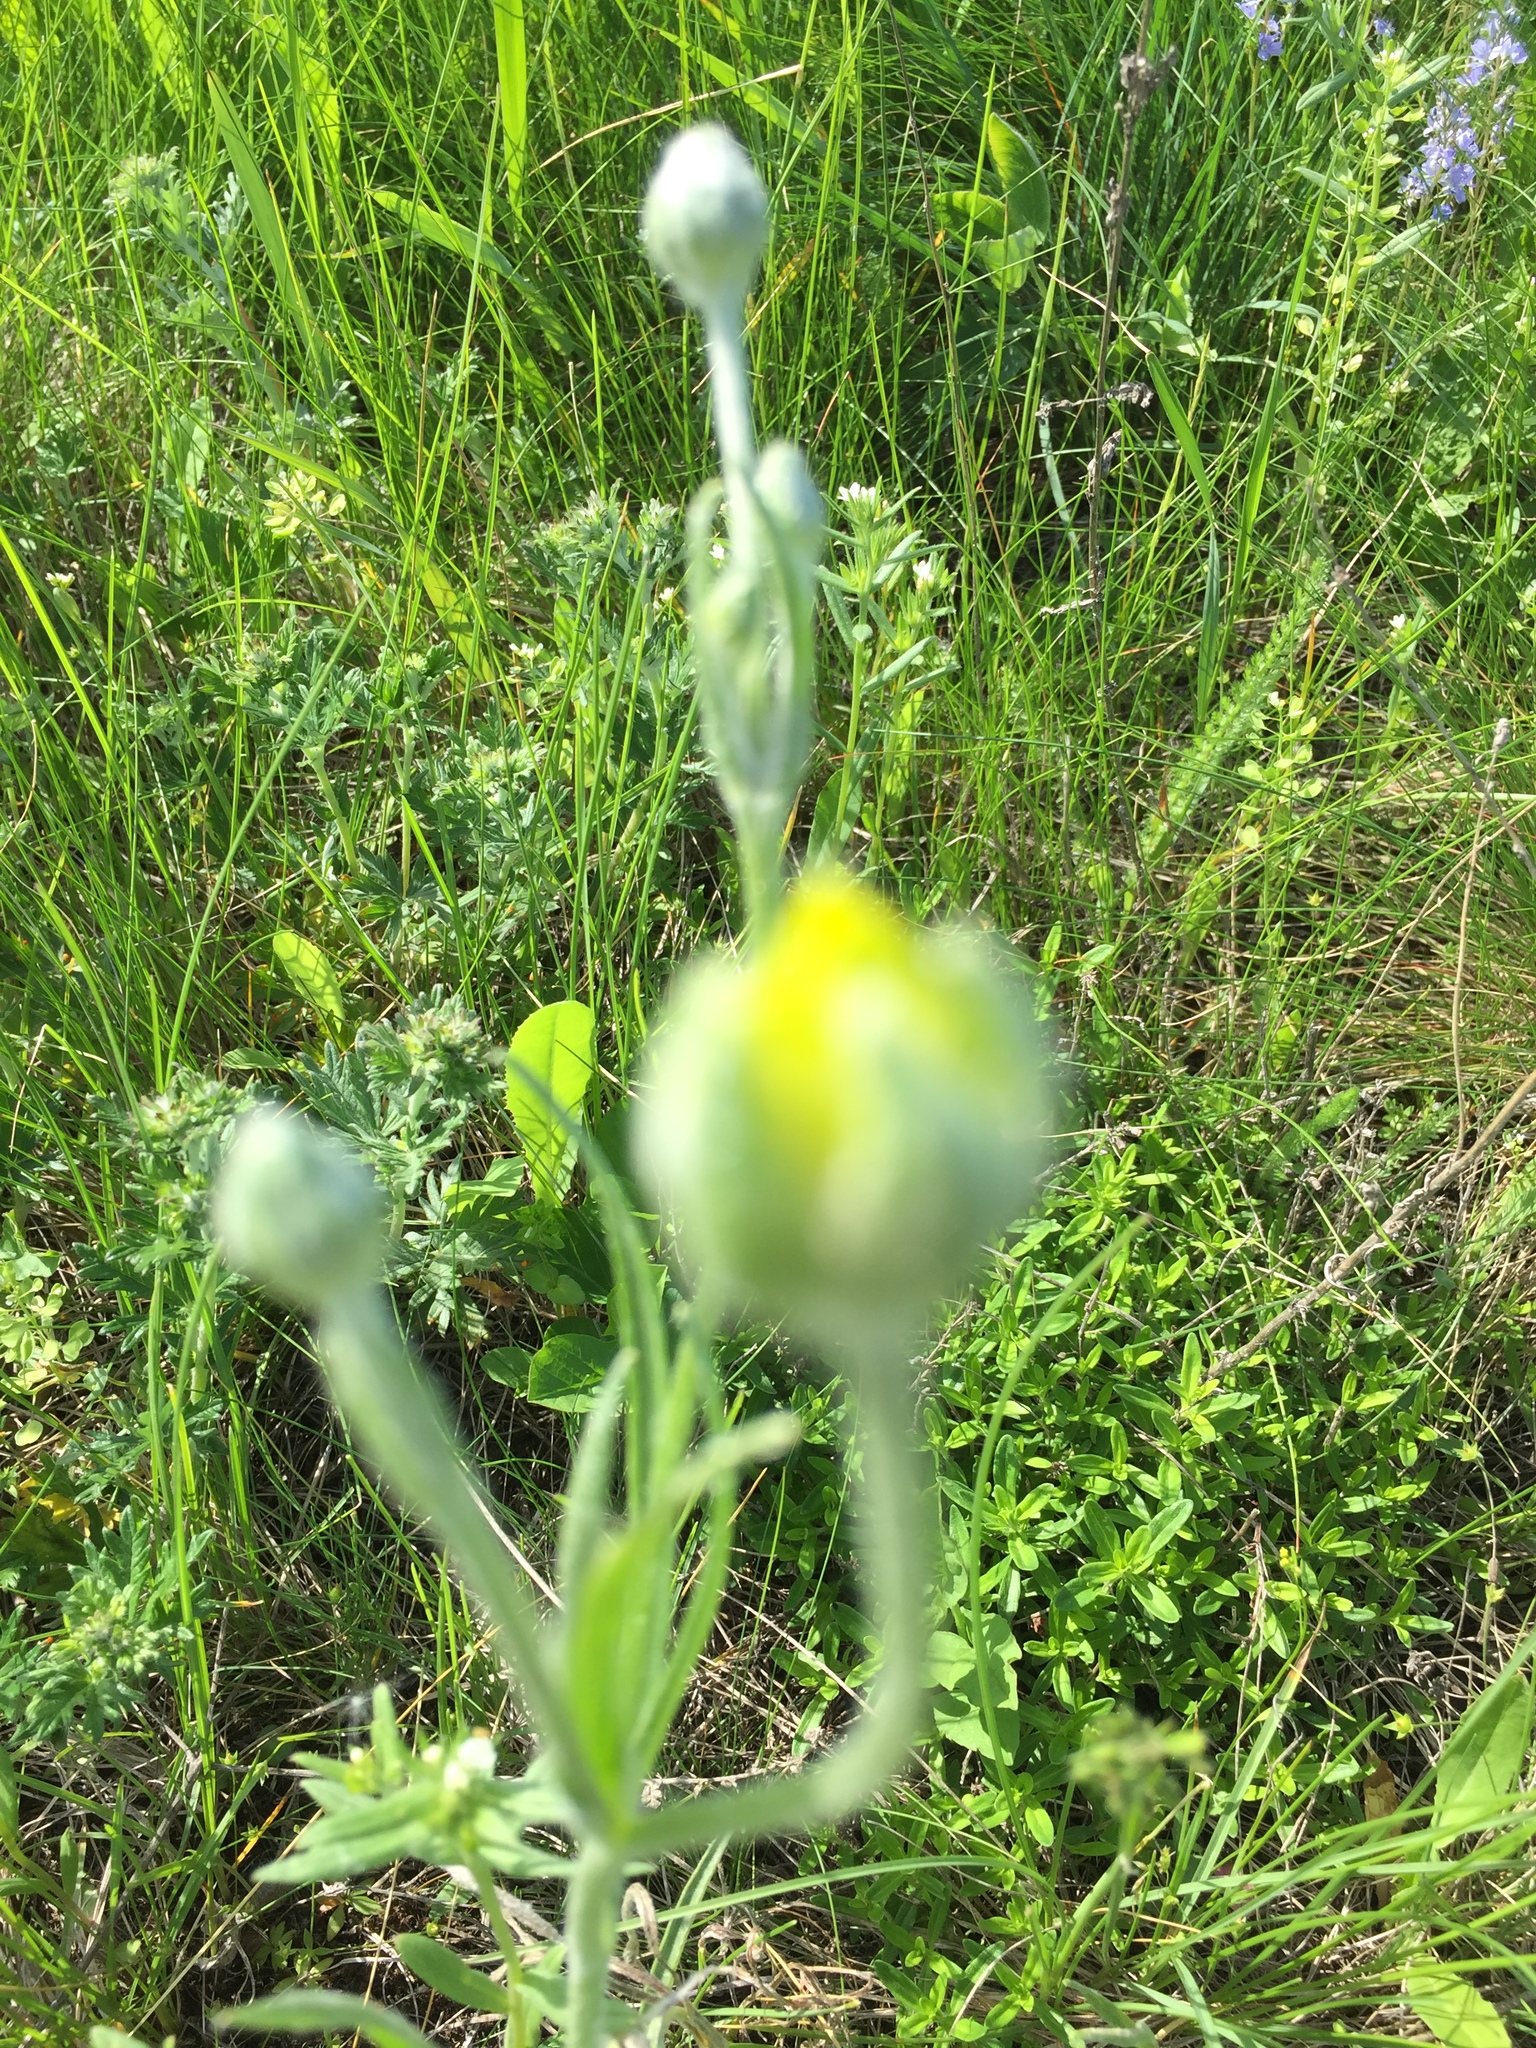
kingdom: Plantae
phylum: Tracheophyta
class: Magnoliopsida
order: Ranunculales
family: Ranunculaceae
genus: Ranunculus
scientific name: Ranunculus illyricus
